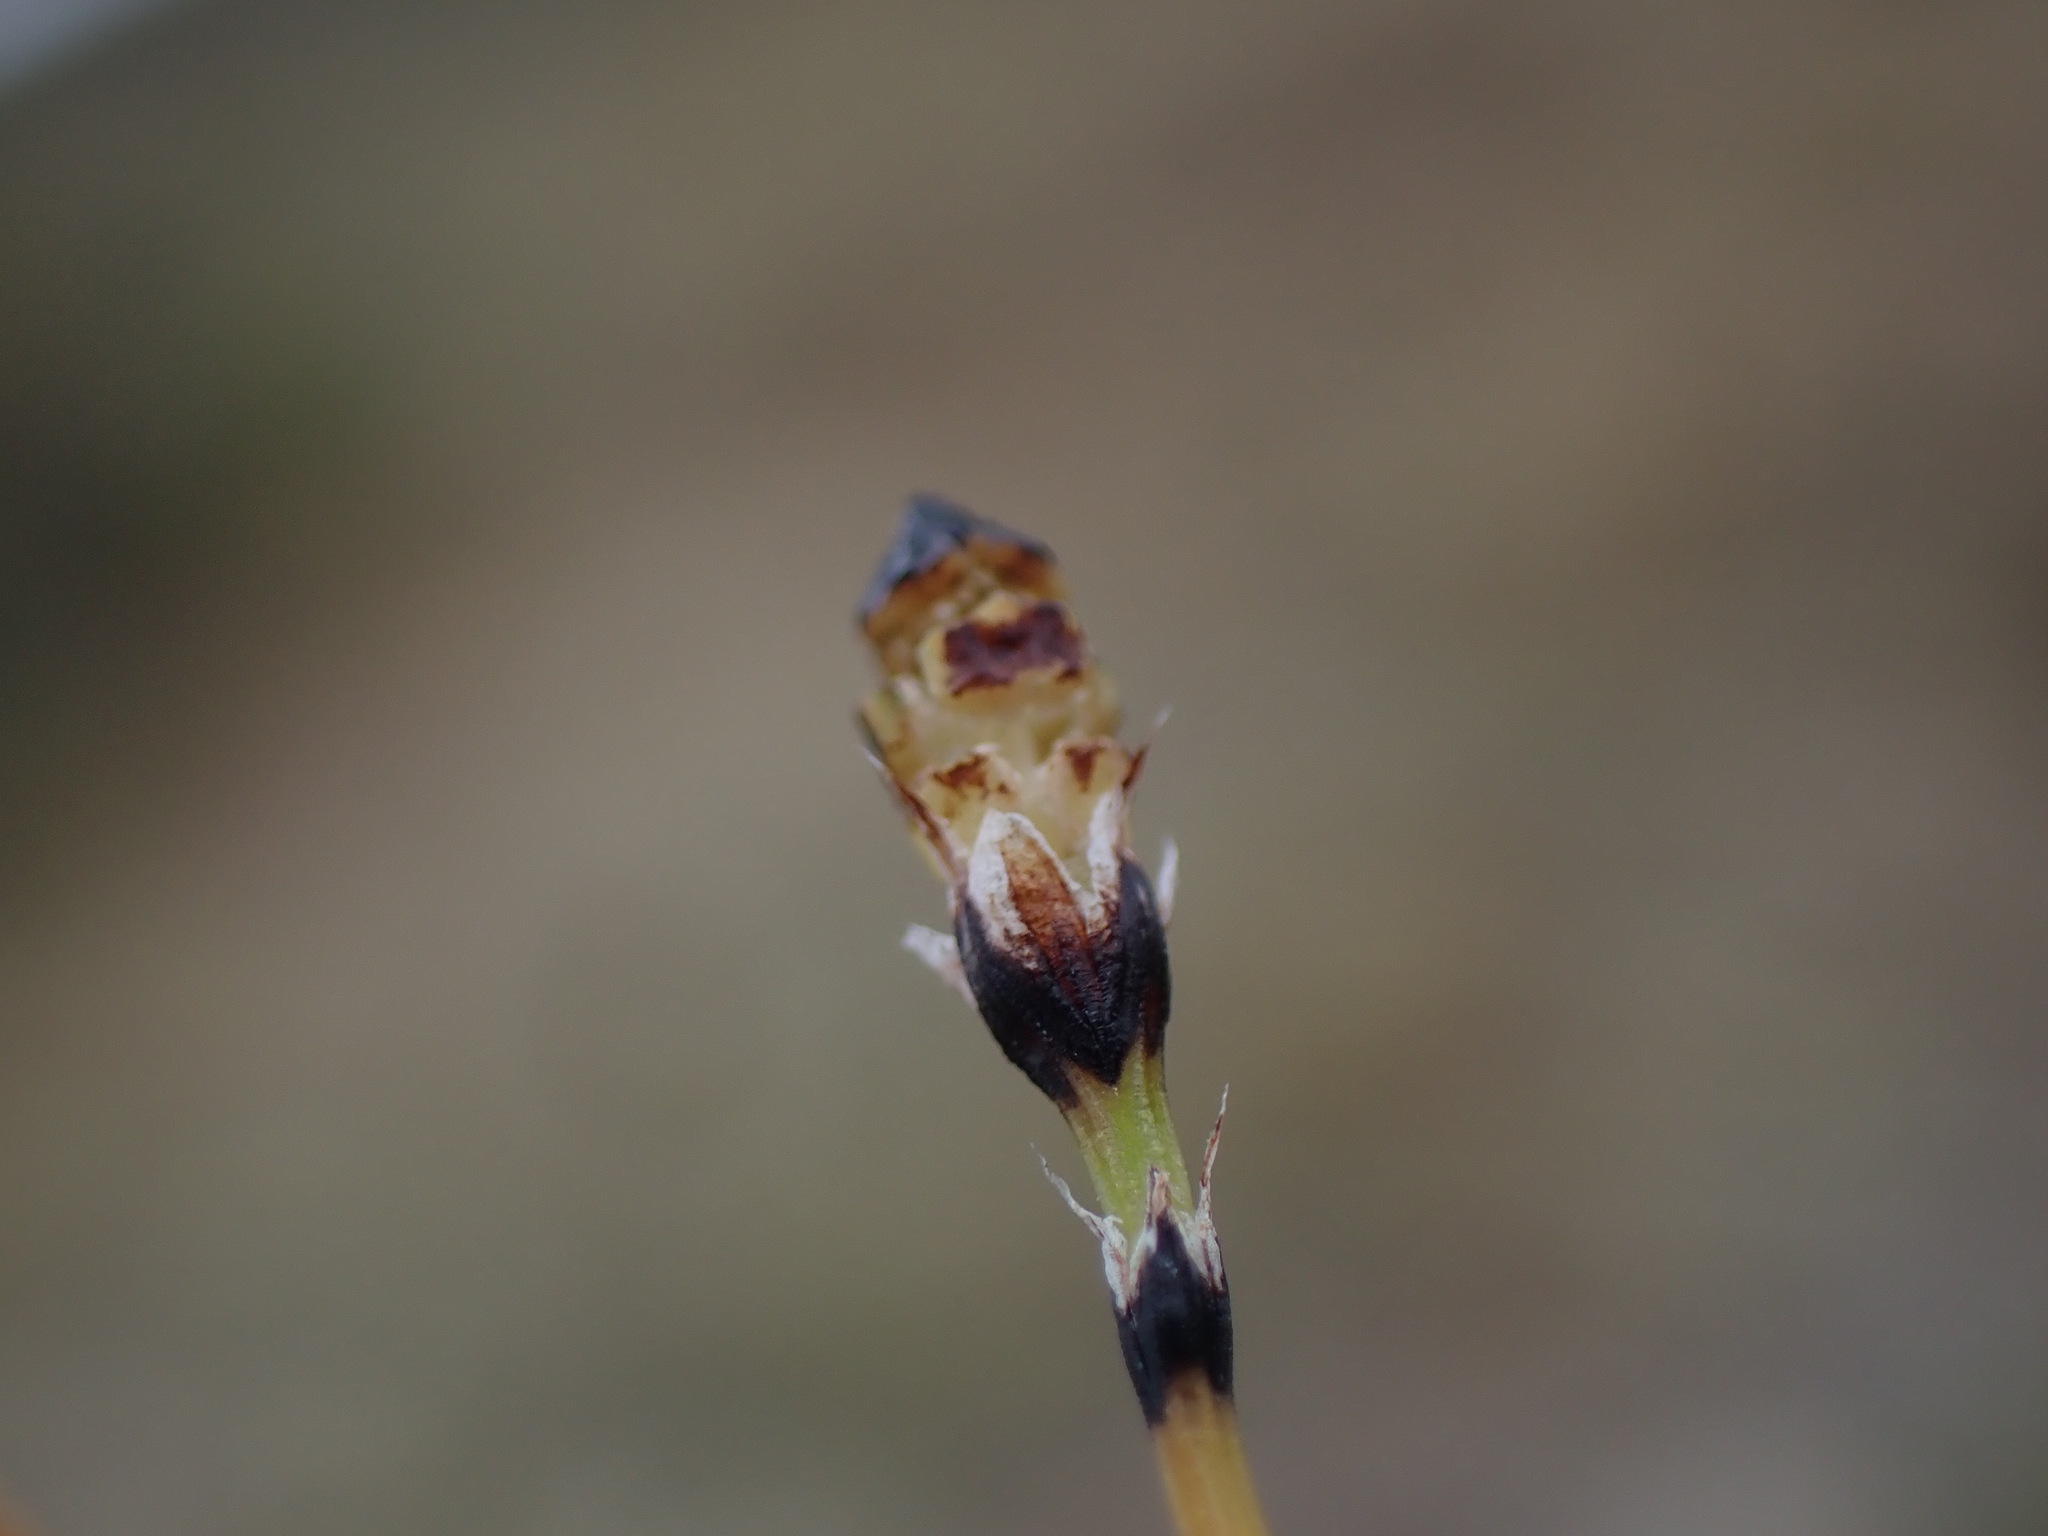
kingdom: Plantae
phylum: Tracheophyta
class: Polypodiopsida
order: Equisetales
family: Equisetaceae
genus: Equisetum
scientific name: Equisetum scirpoides
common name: Delicate horsetail
